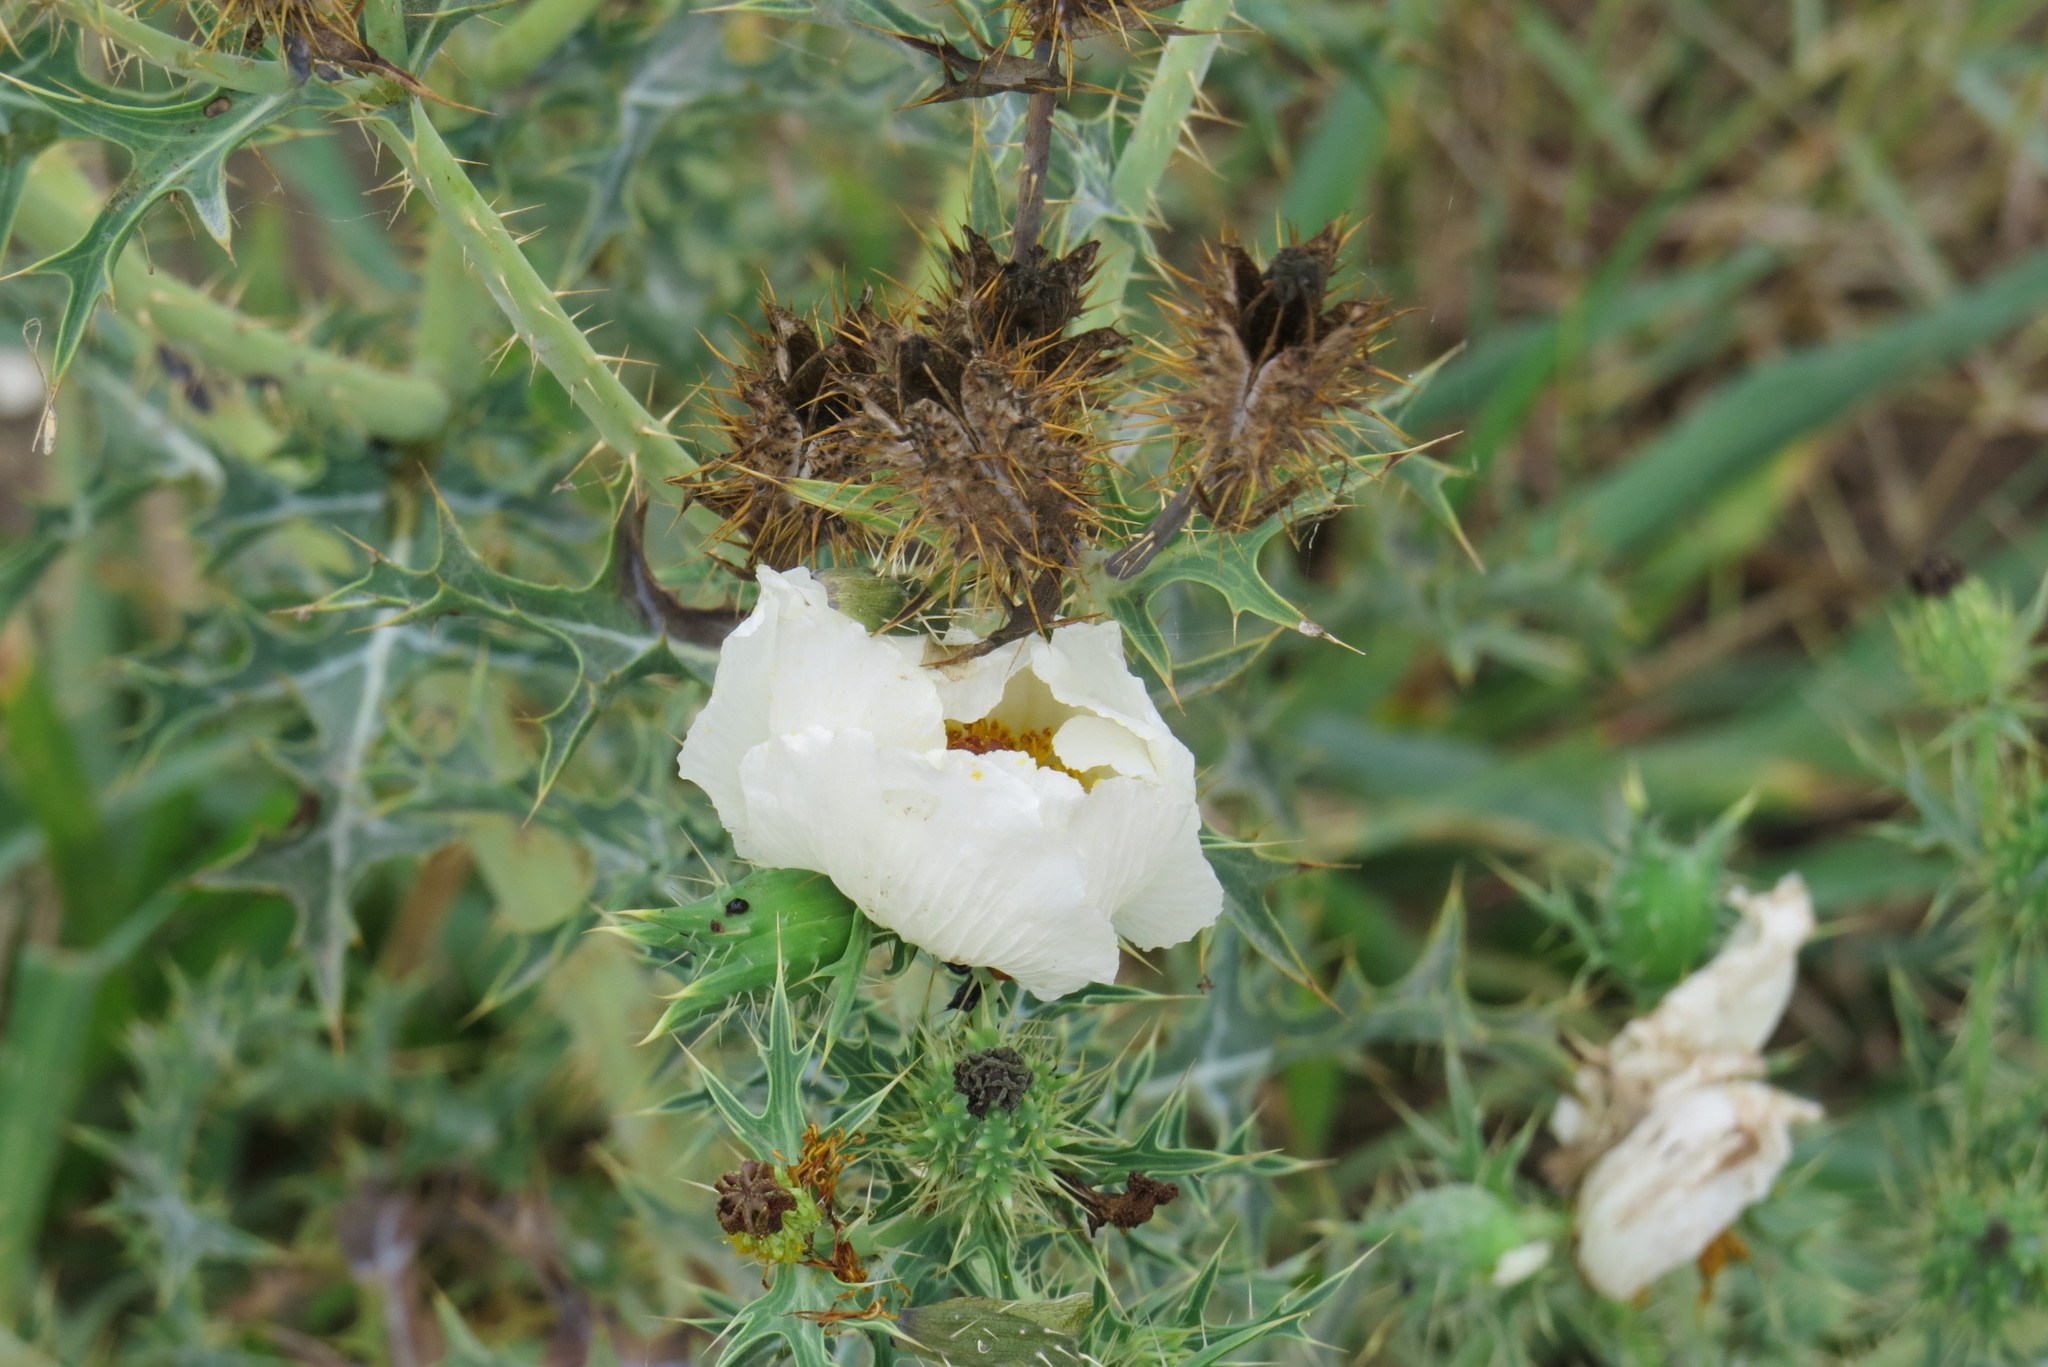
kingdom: Plantae
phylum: Tracheophyta
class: Magnoliopsida
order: Ranunculales
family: Papaveraceae
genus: Argemone
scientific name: Argemone sanguinea
